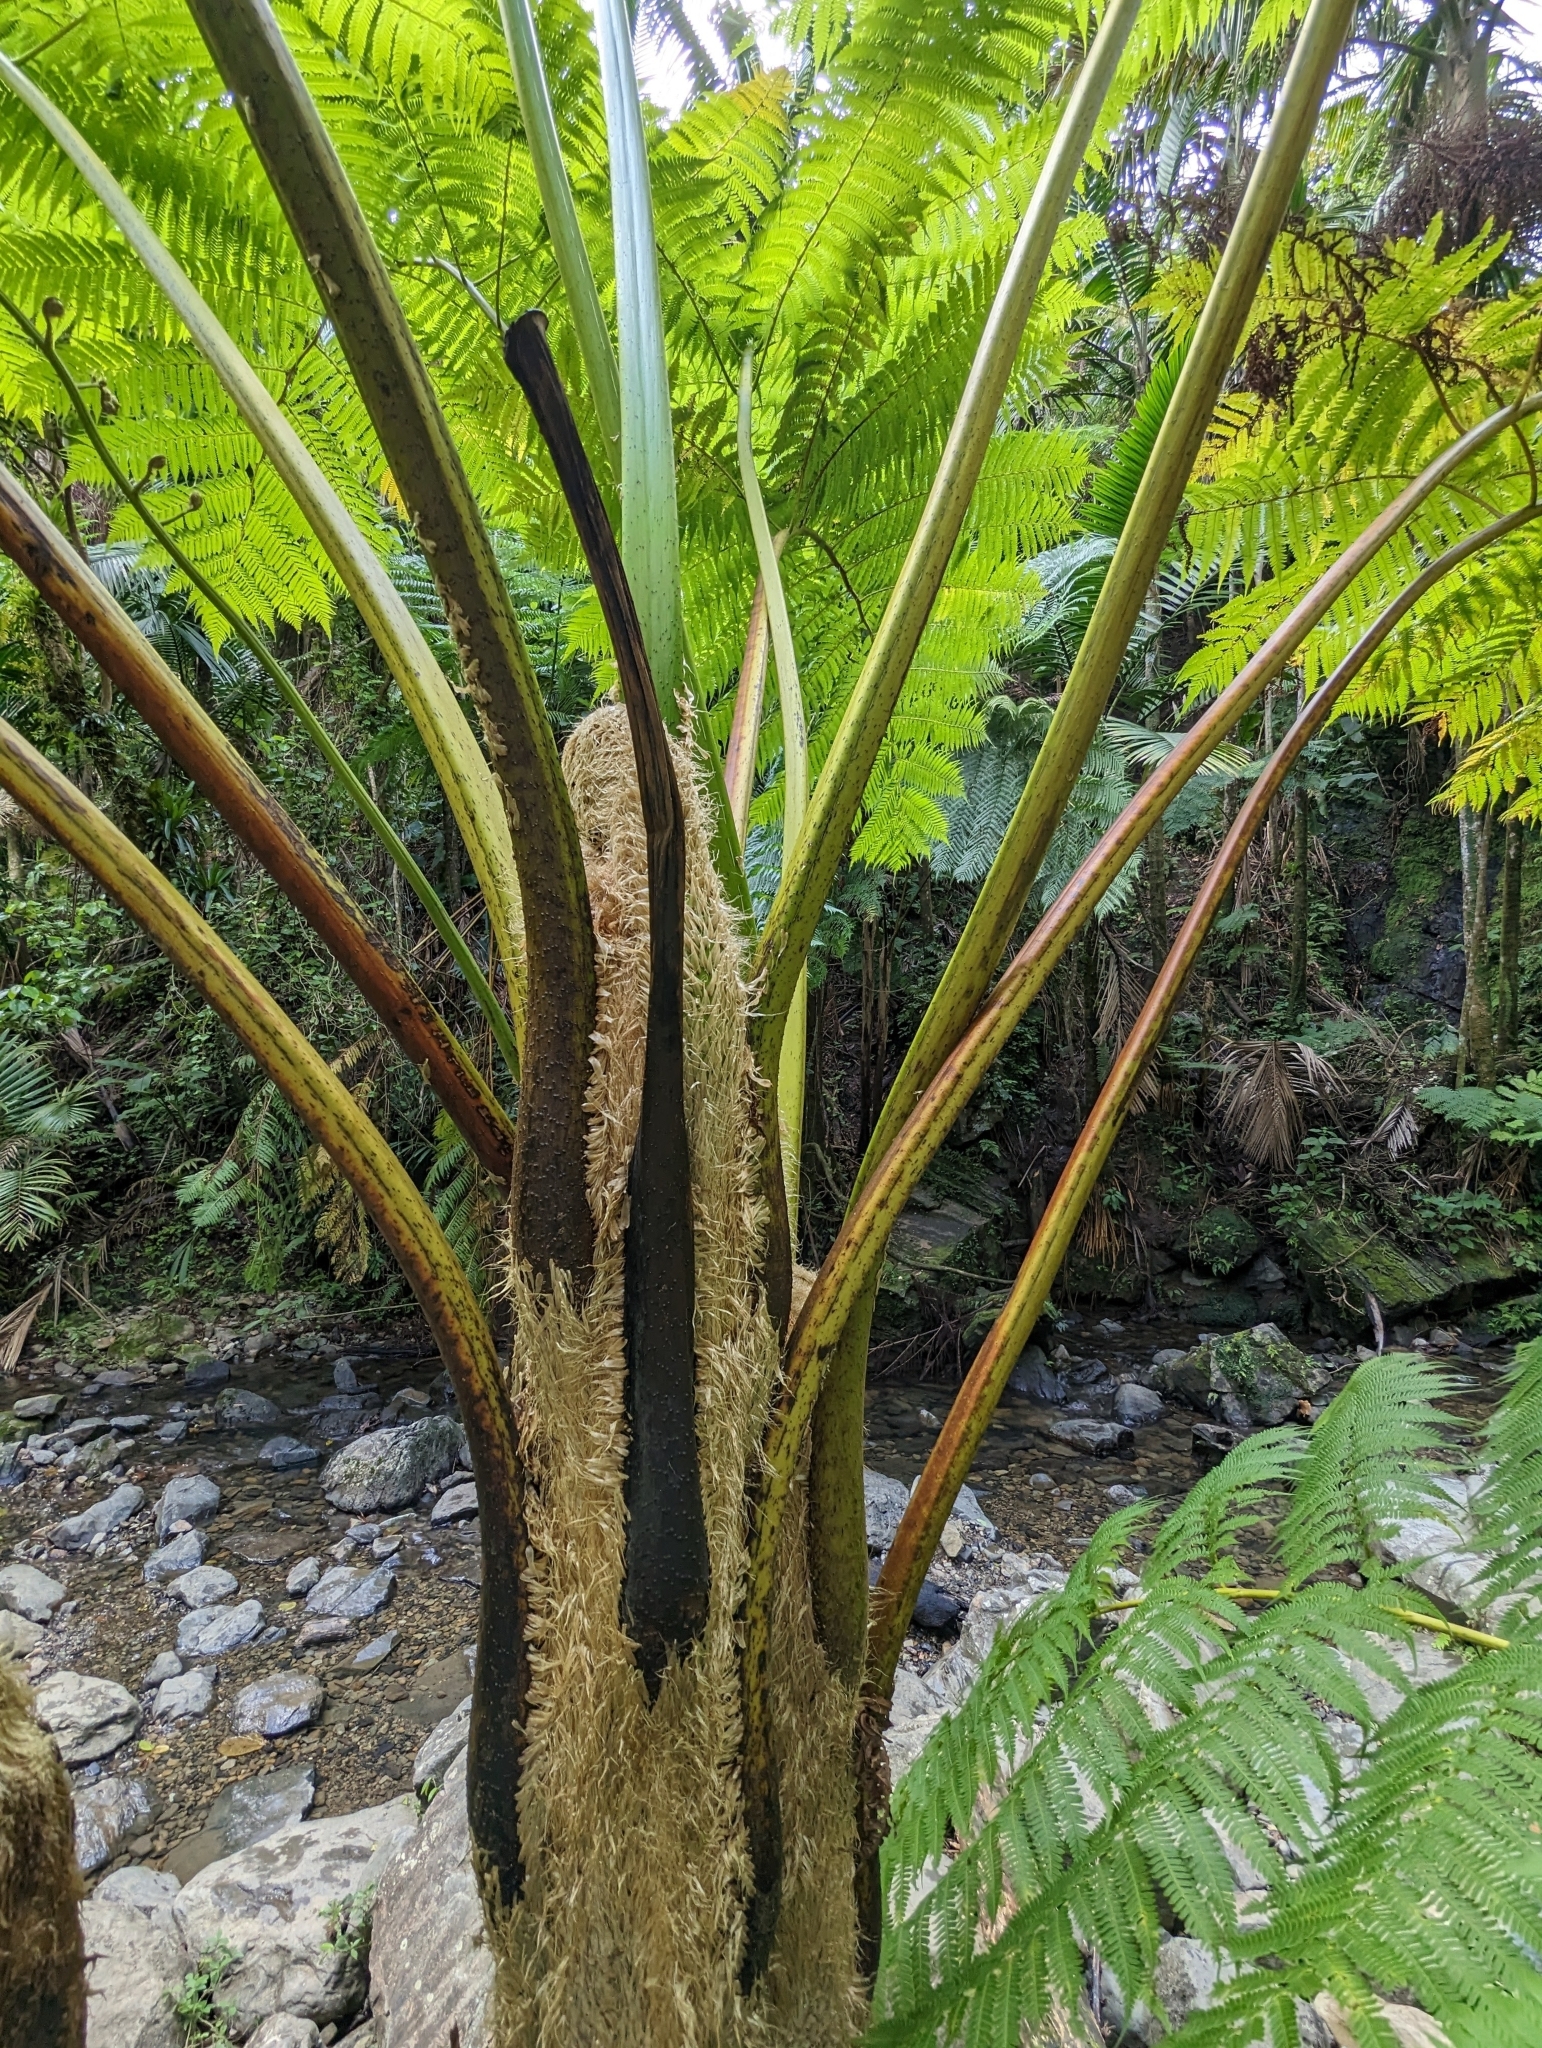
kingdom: Plantae
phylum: Tracheophyta
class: Polypodiopsida
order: Cyatheales
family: Cyatheaceae
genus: Cyathea
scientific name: Cyathea arborea
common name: West indian treefern
